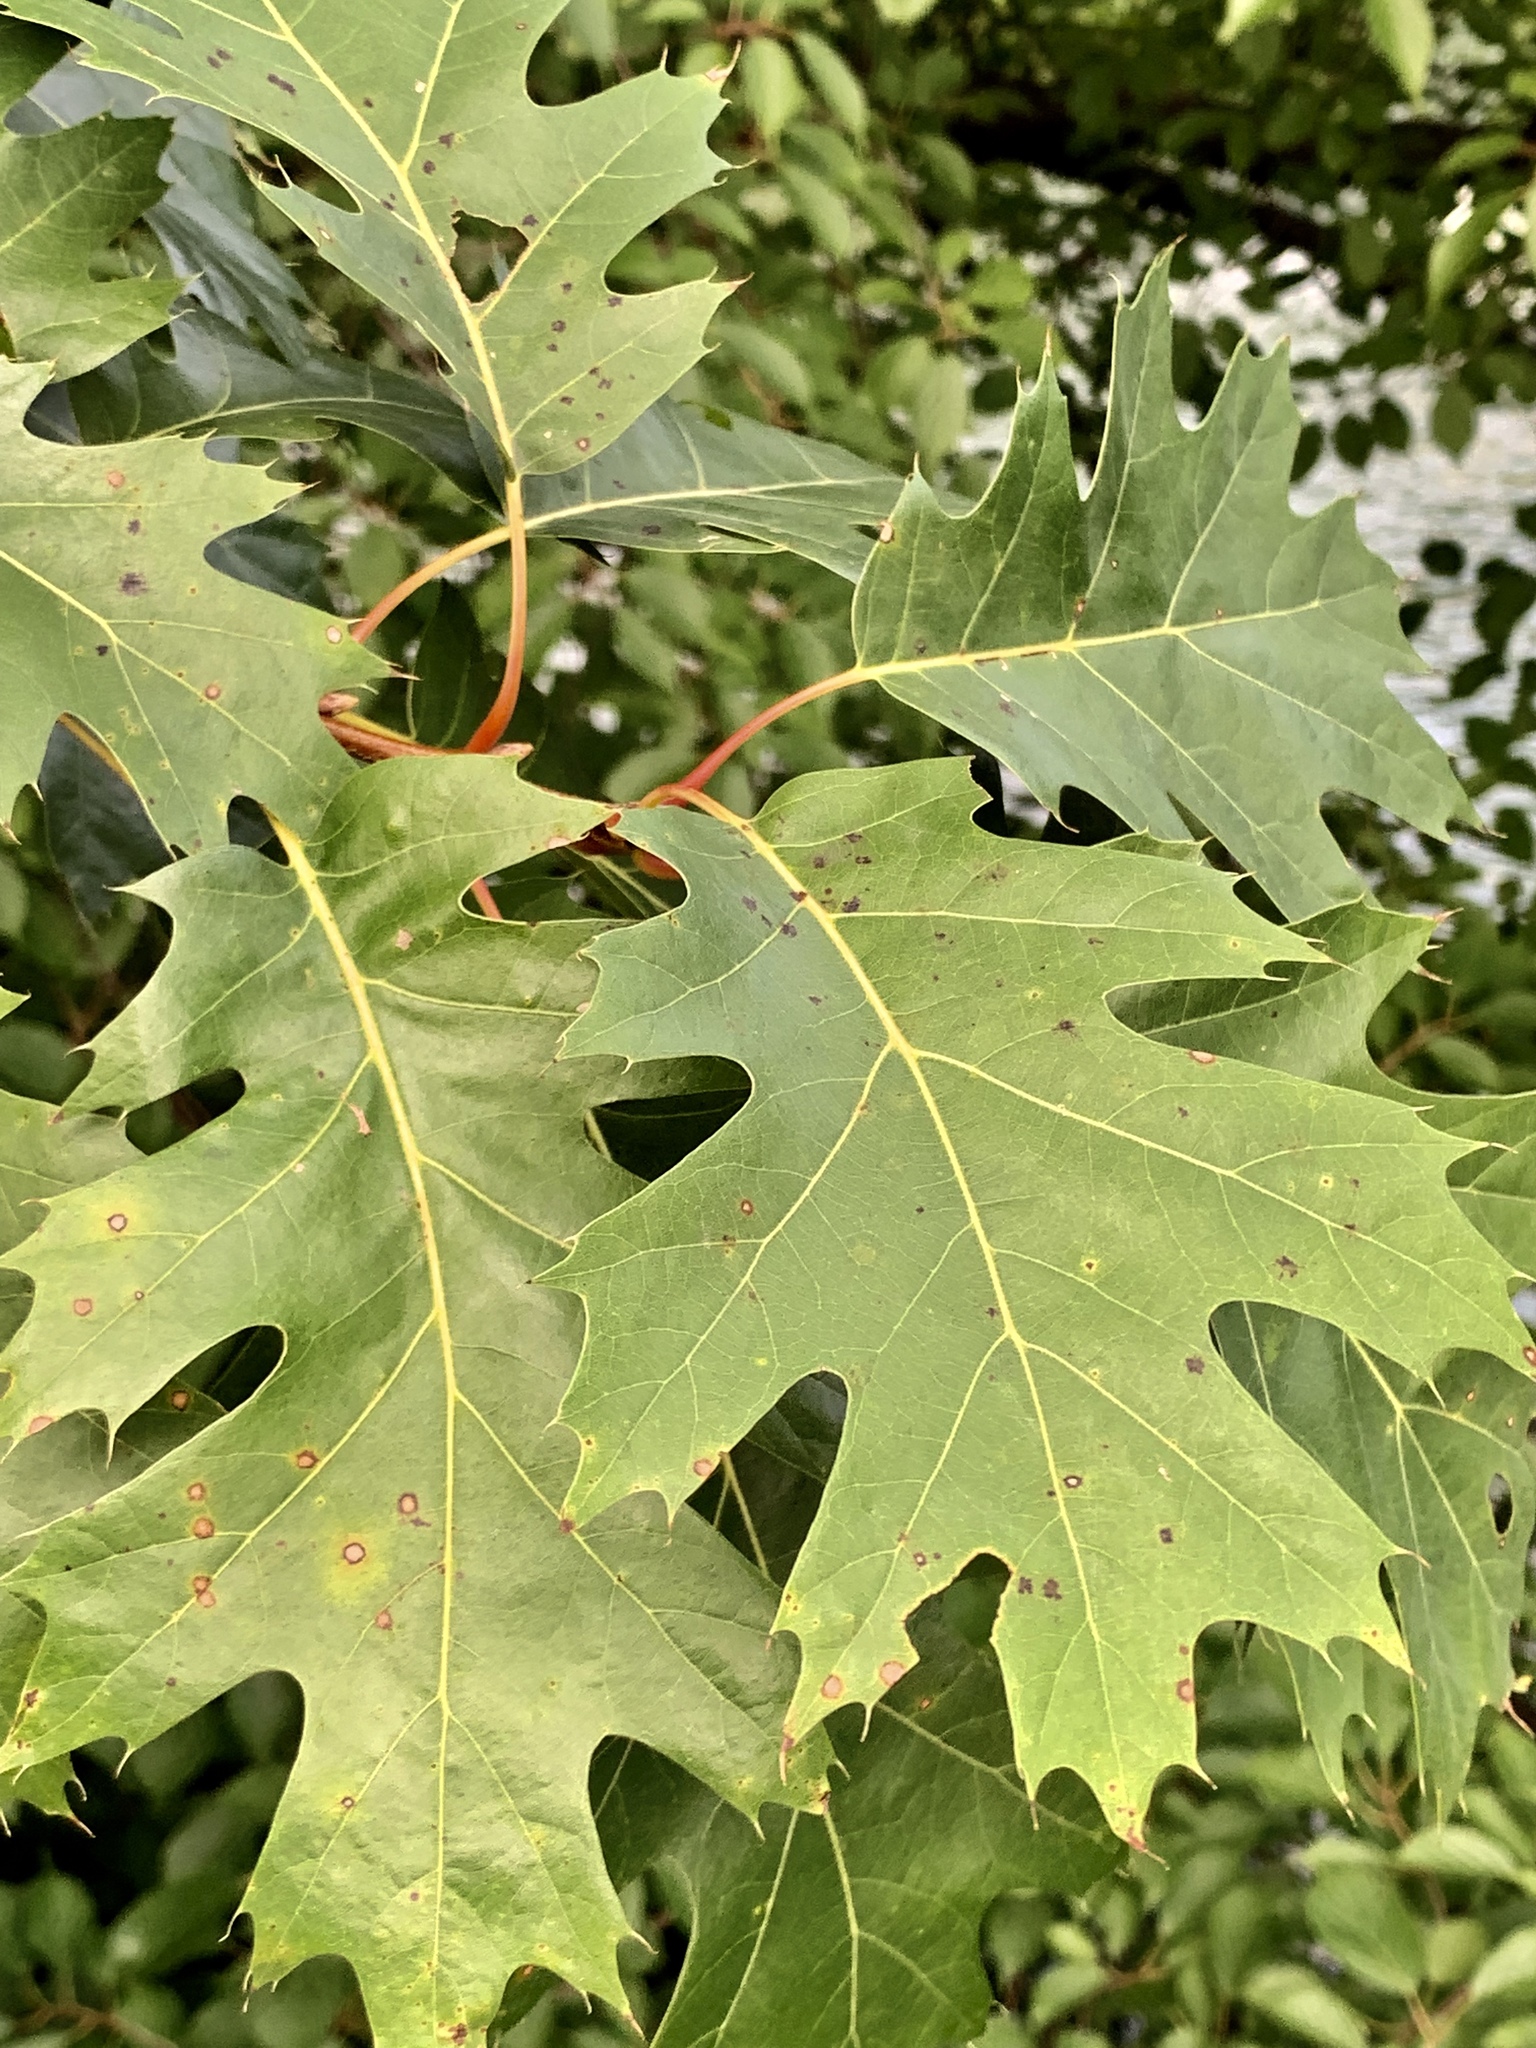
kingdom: Plantae
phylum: Tracheophyta
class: Magnoliopsida
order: Fagales
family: Fagaceae
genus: Quercus
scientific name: Quercus rubra
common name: Red oak
